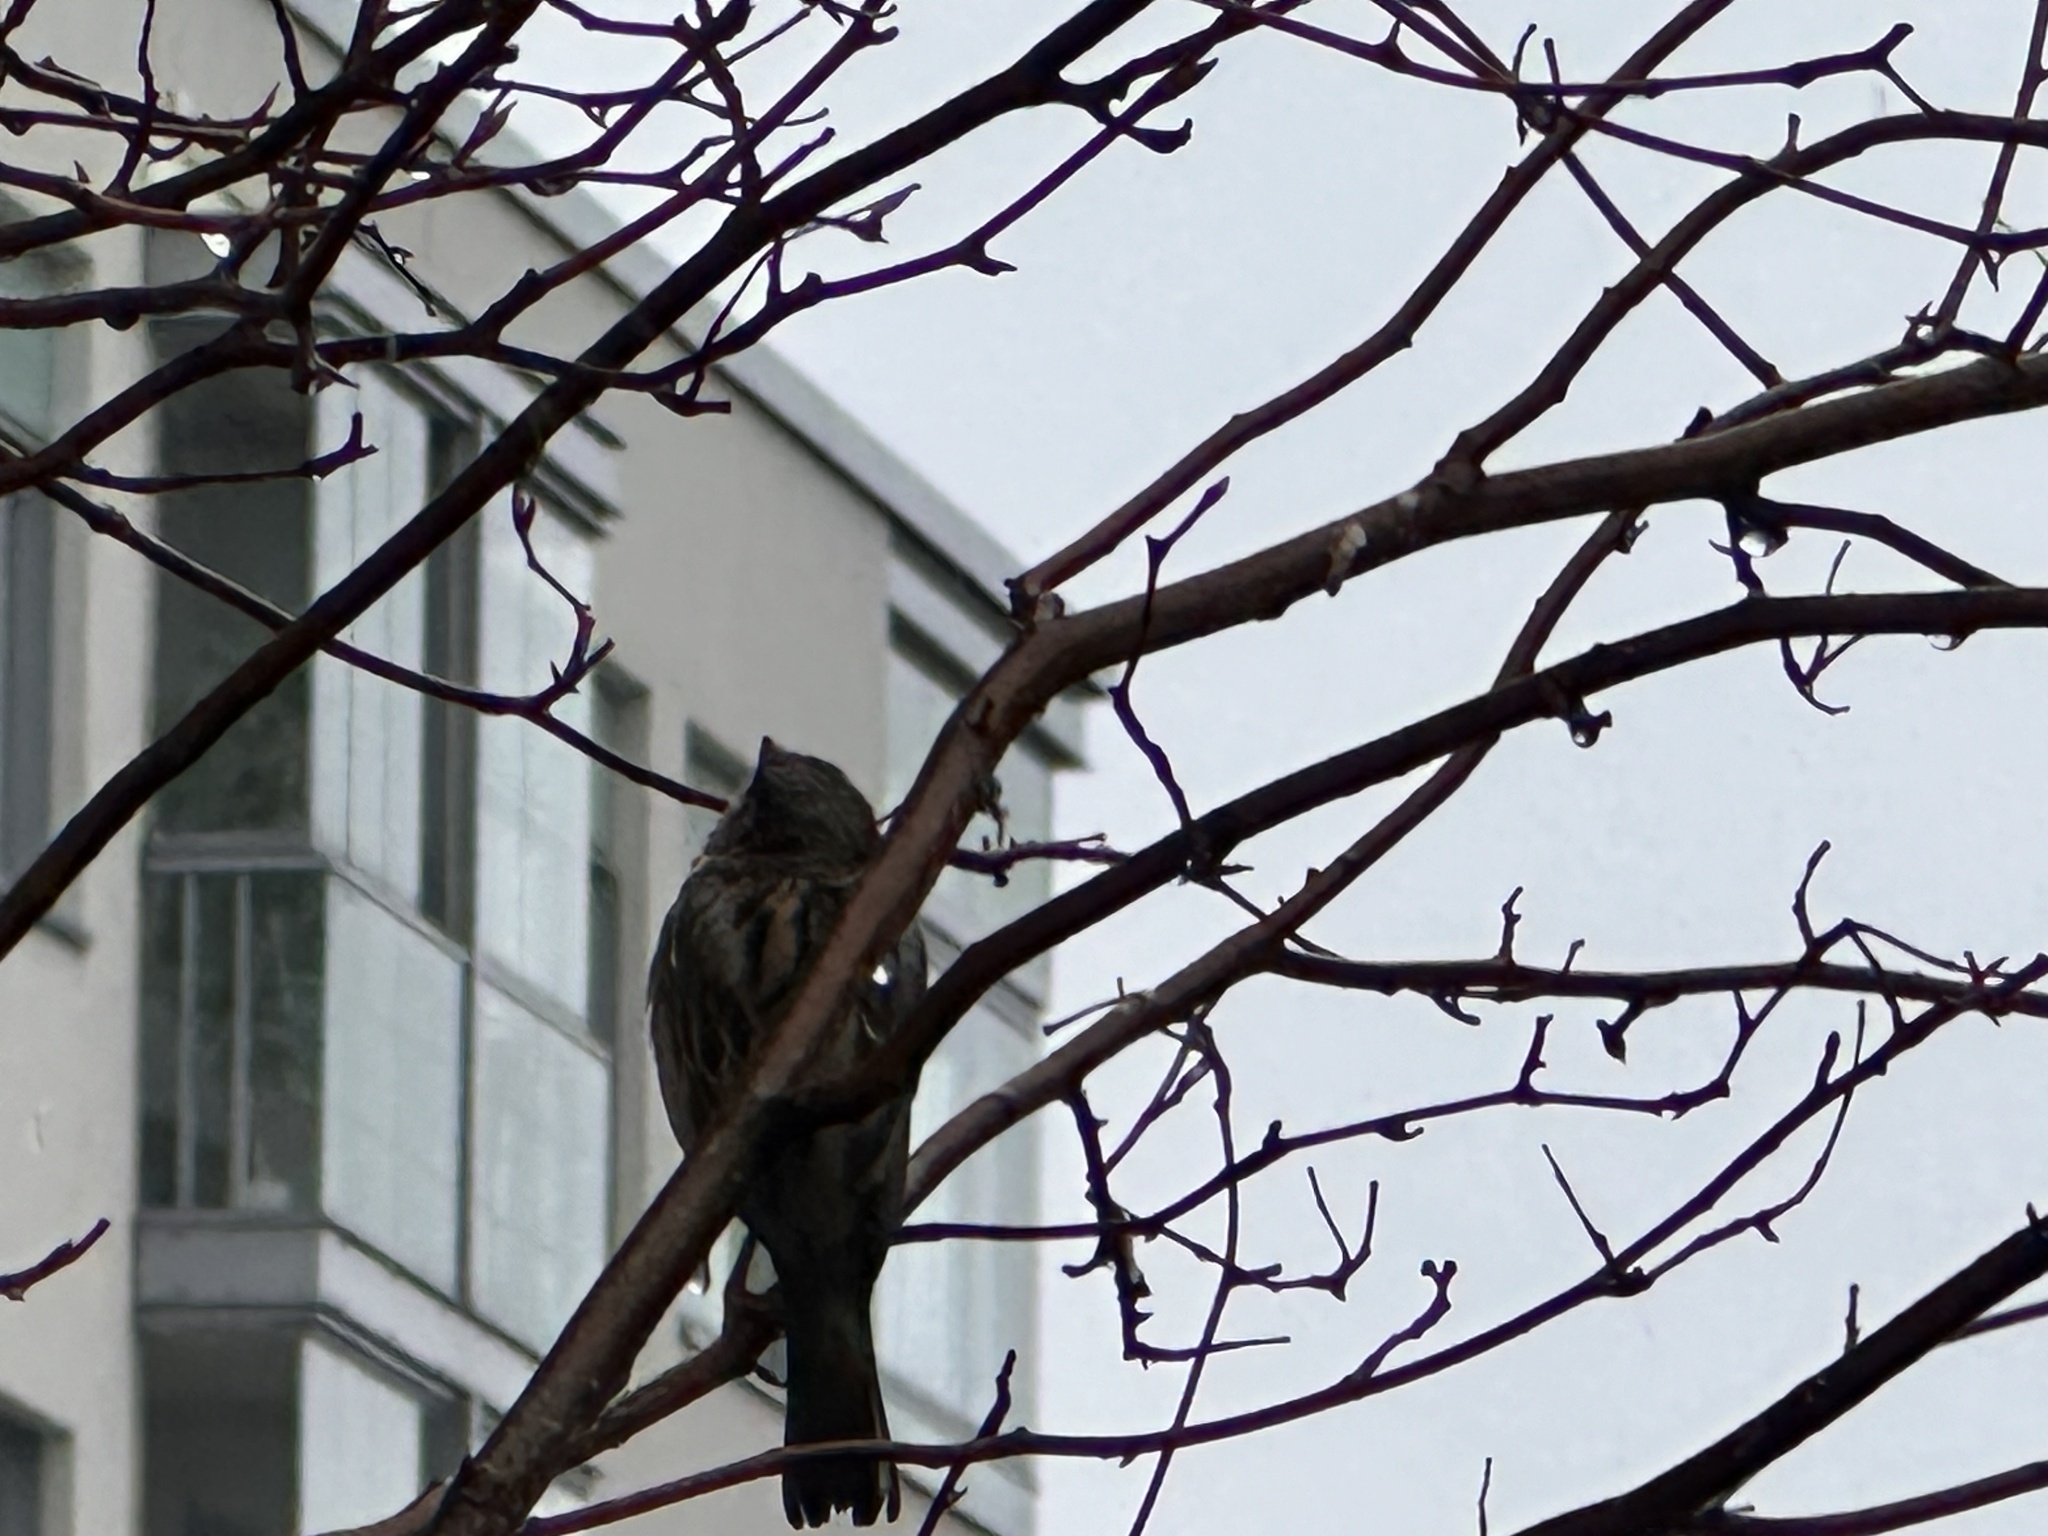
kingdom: Animalia
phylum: Chordata
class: Aves
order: Passeriformes
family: Passeridae
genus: Passer
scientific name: Passer domesticus
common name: House sparrow
